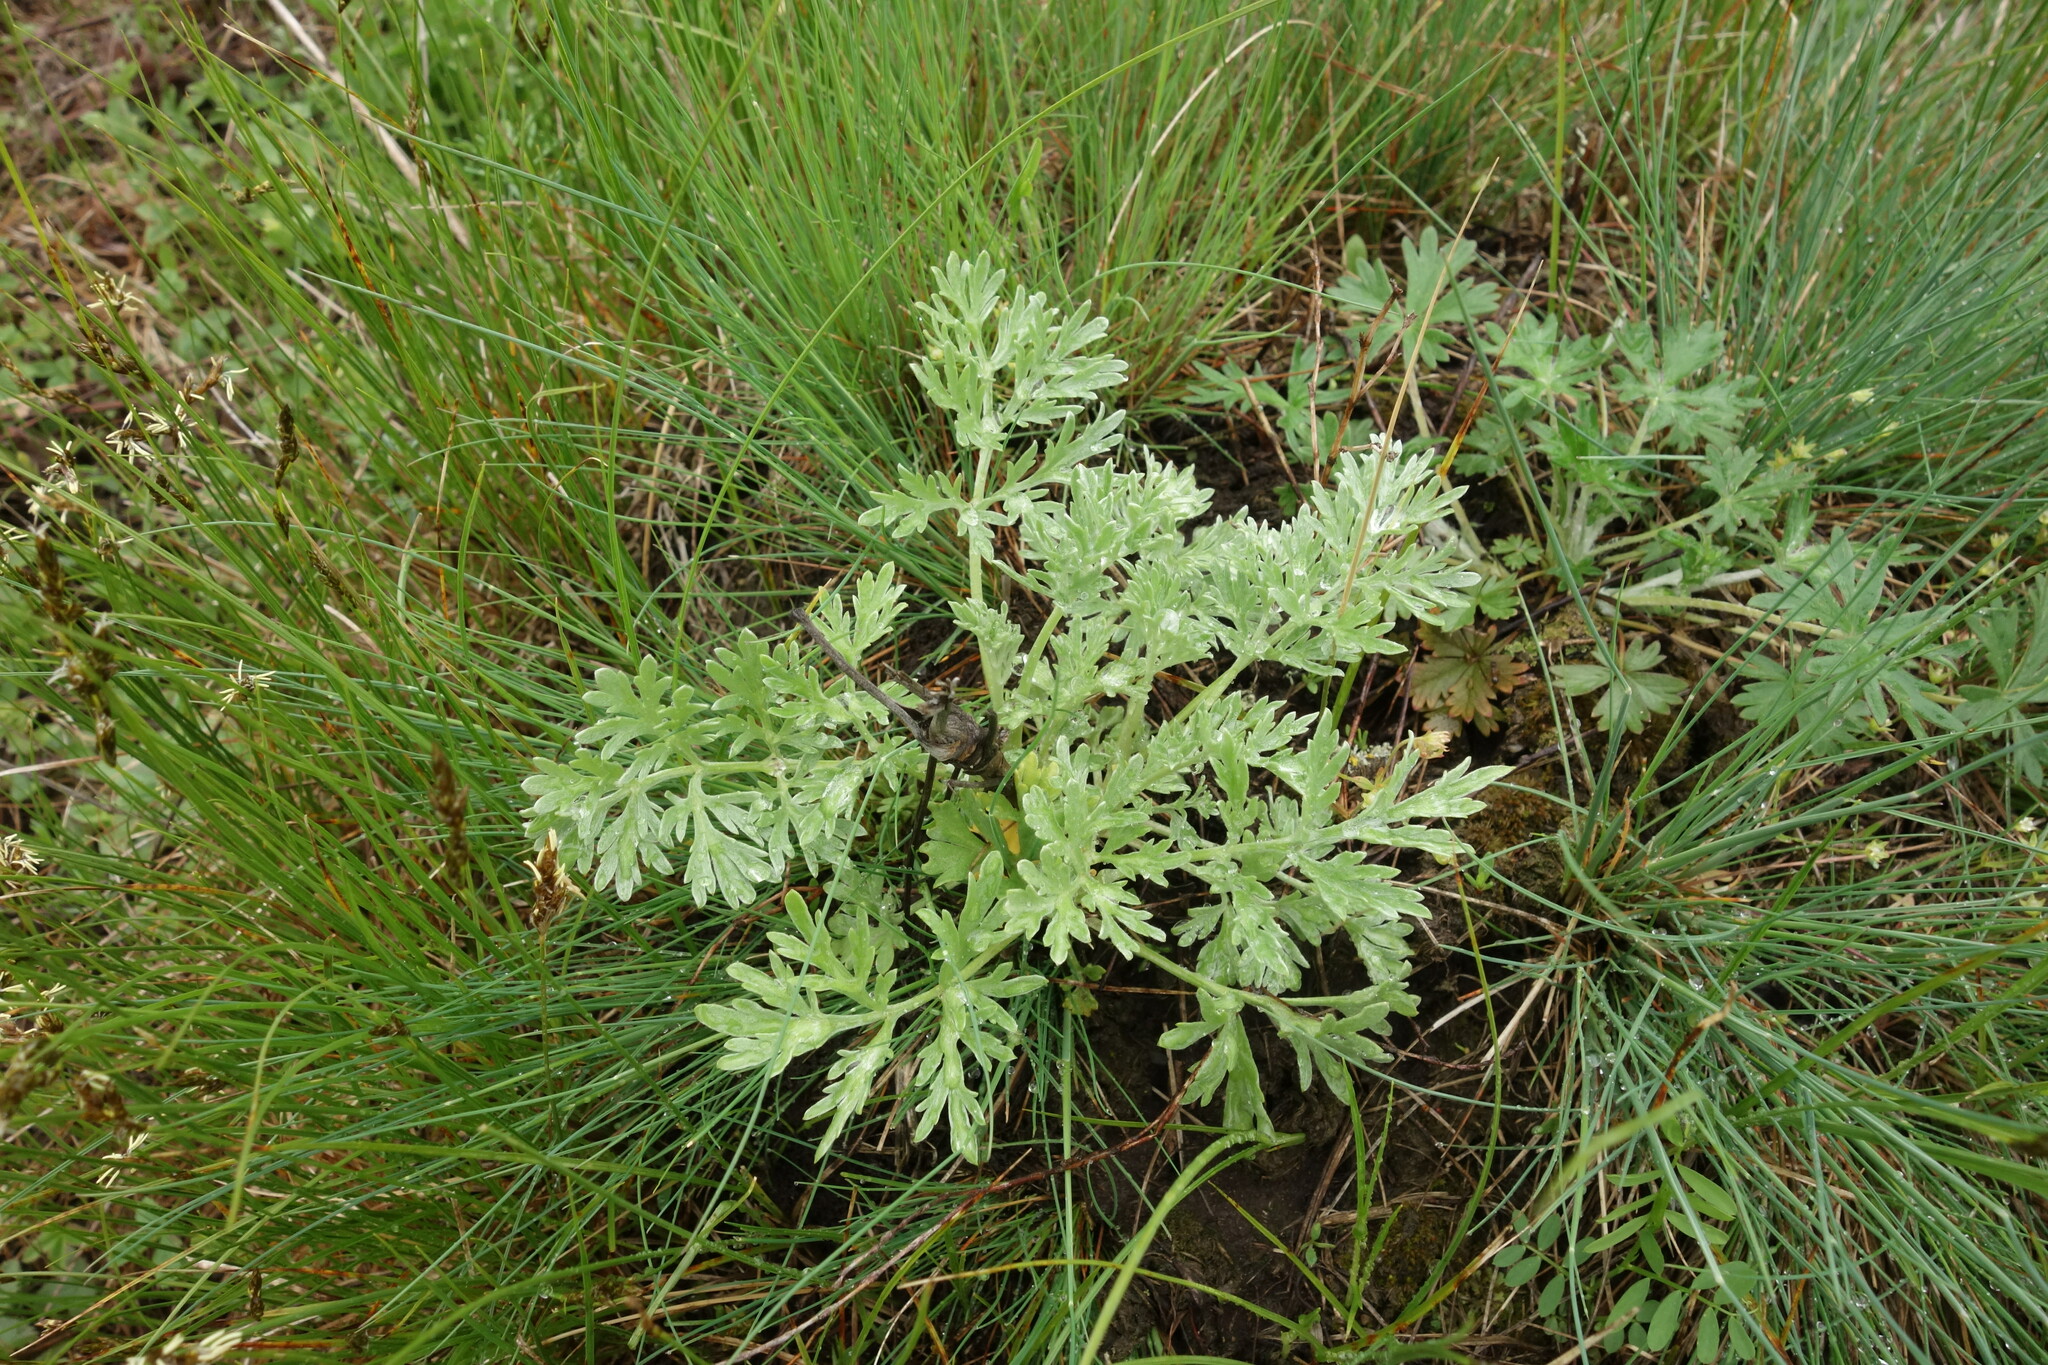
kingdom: Plantae
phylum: Tracheophyta
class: Magnoliopsida
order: Asterales
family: Asteraceae
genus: Artemisia
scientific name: Artemisia absinthium
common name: Wormwood
